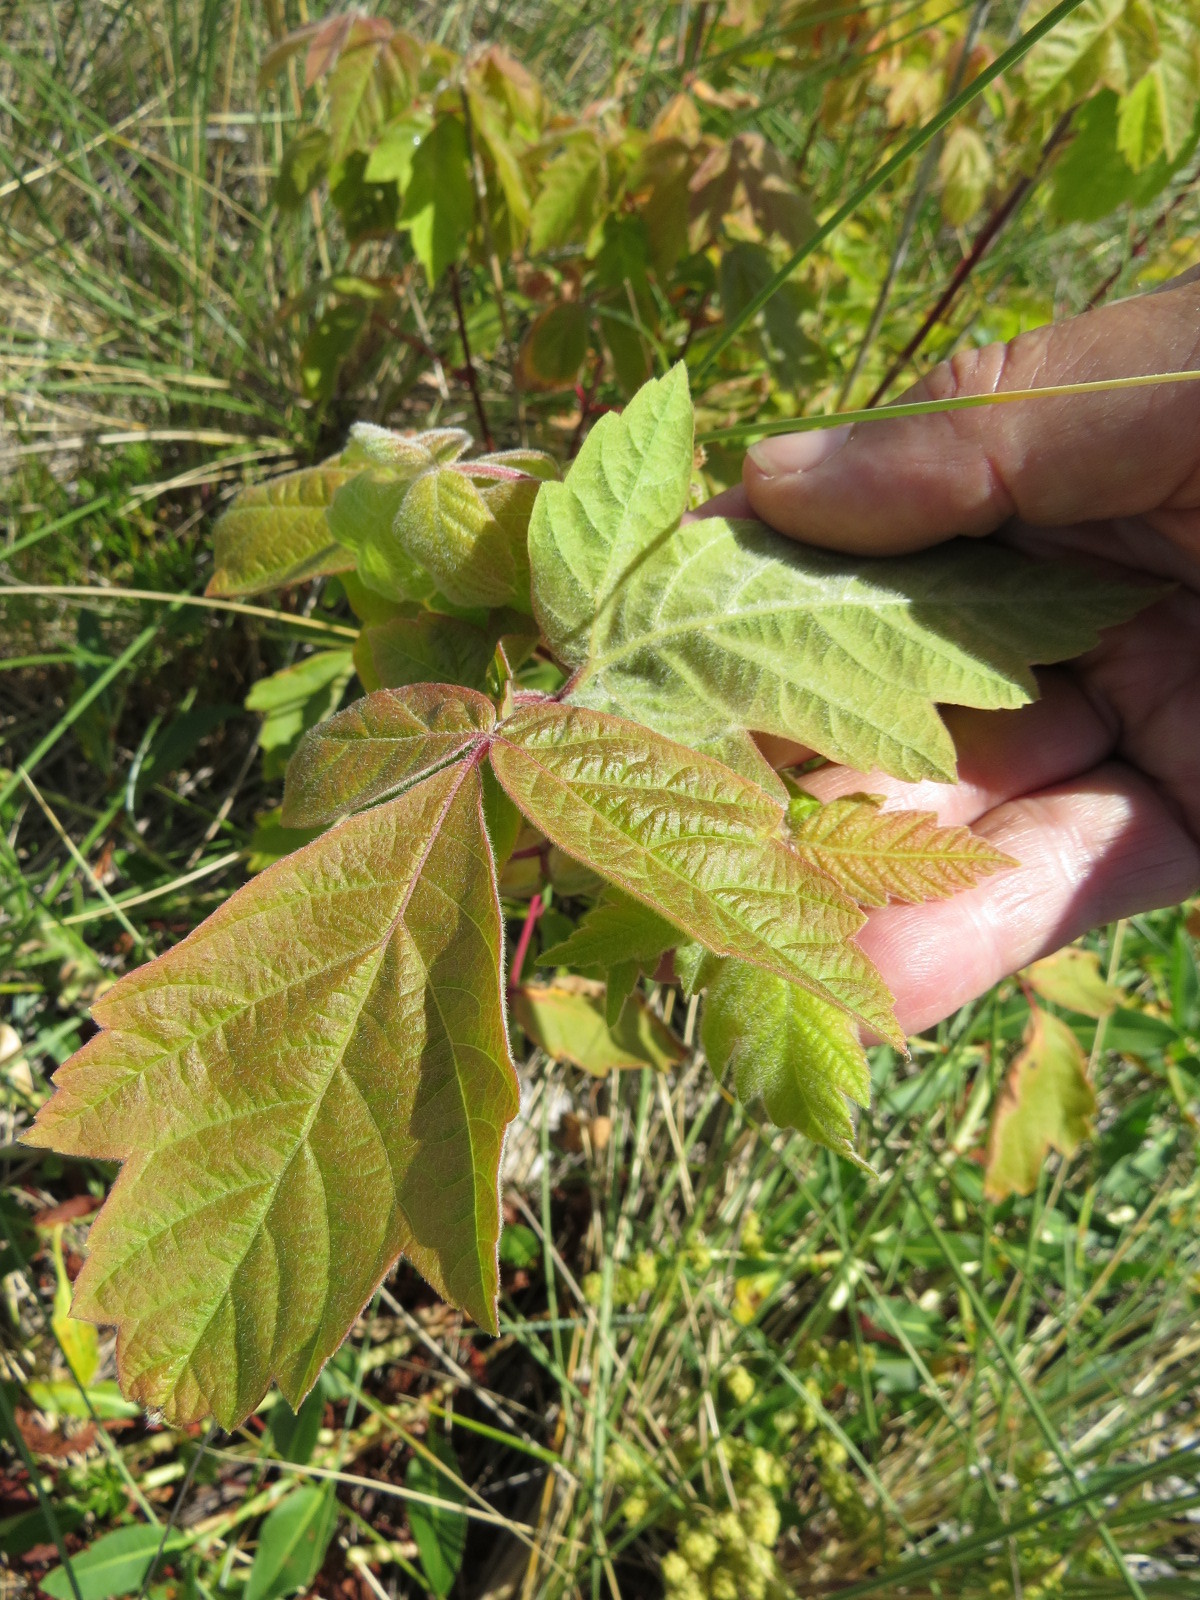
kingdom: Plantae
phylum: Tracheophyta
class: Magnoliopsida
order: Sapindales
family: Sapindaceae
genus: Acer
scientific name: Acer negundo
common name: Ashleaf maple
